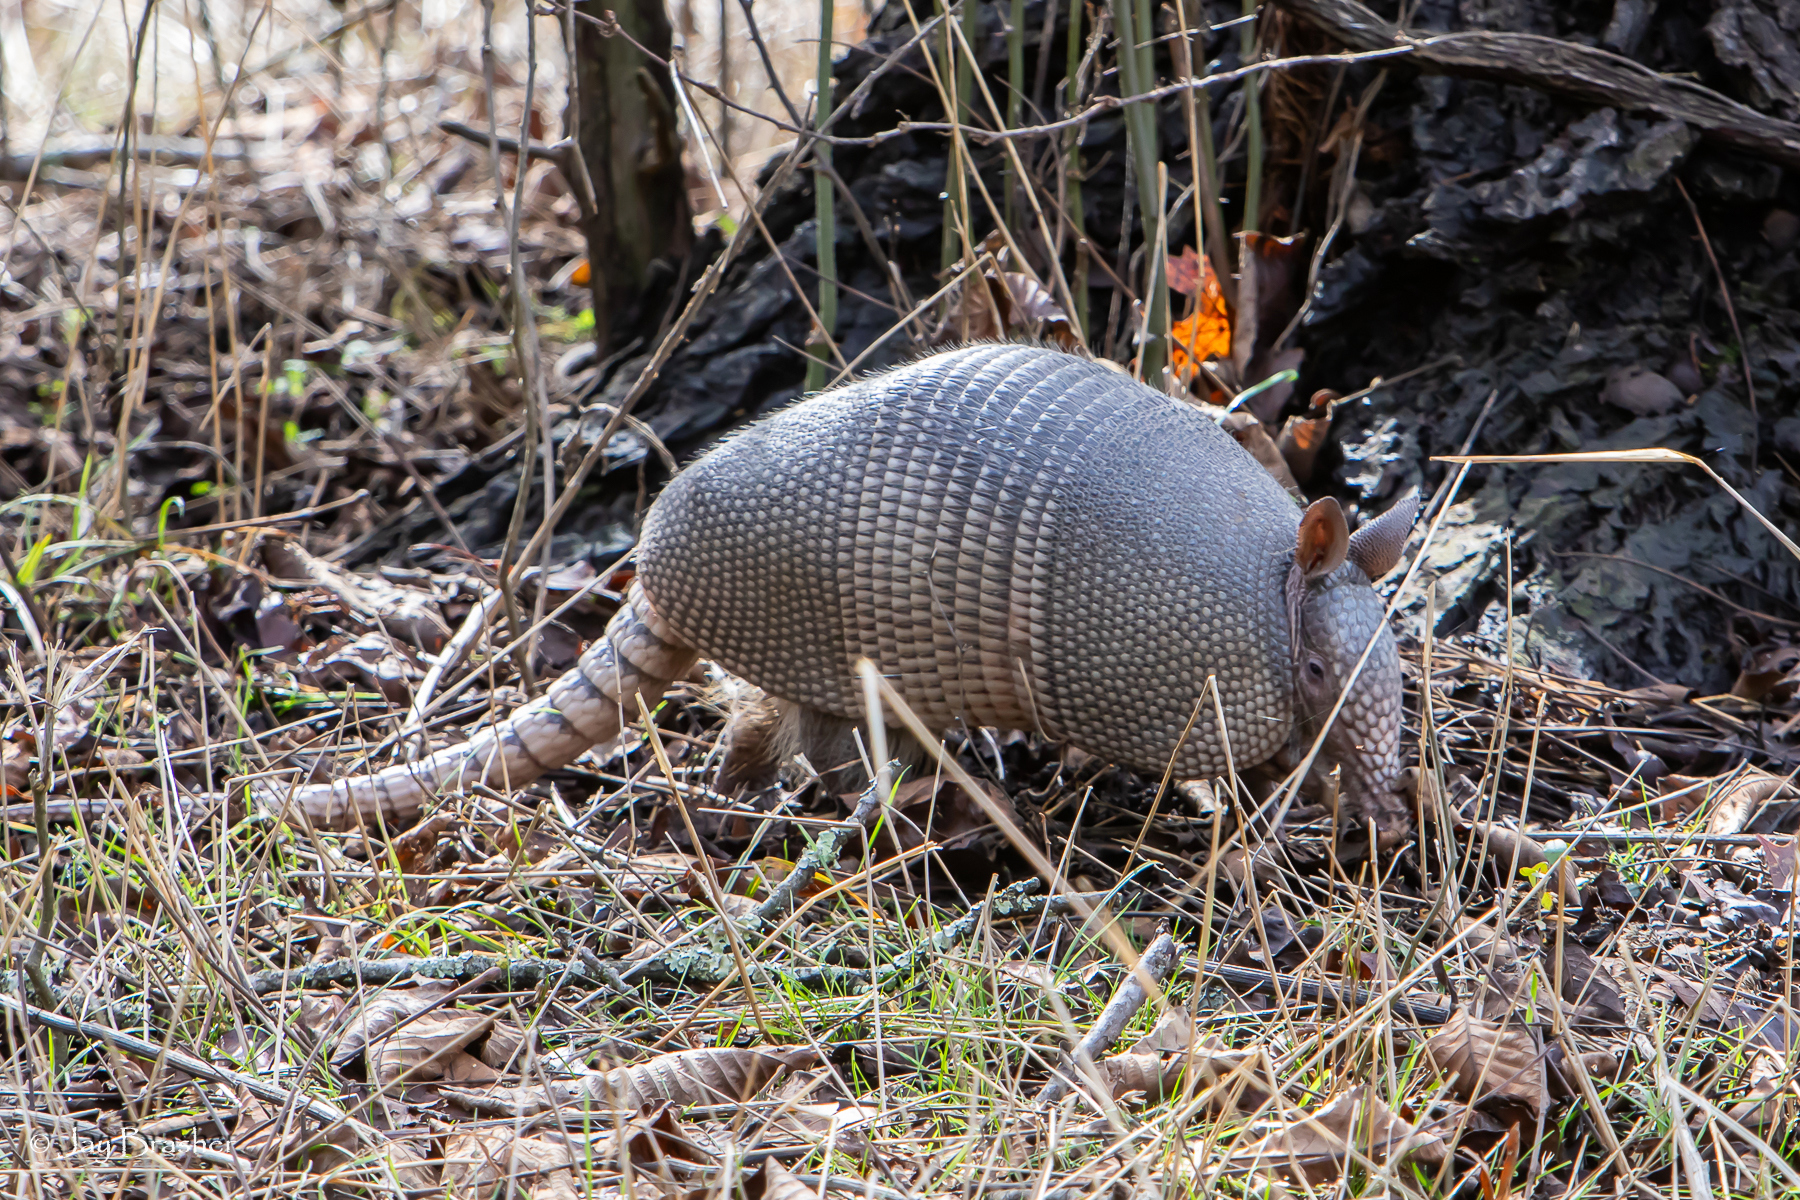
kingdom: Animalia
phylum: Chordata
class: Mammalia
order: Cingulata
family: Dasypodidae
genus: Dasypus
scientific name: Dasypus novemcinctus
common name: Nine-banded armadillo
